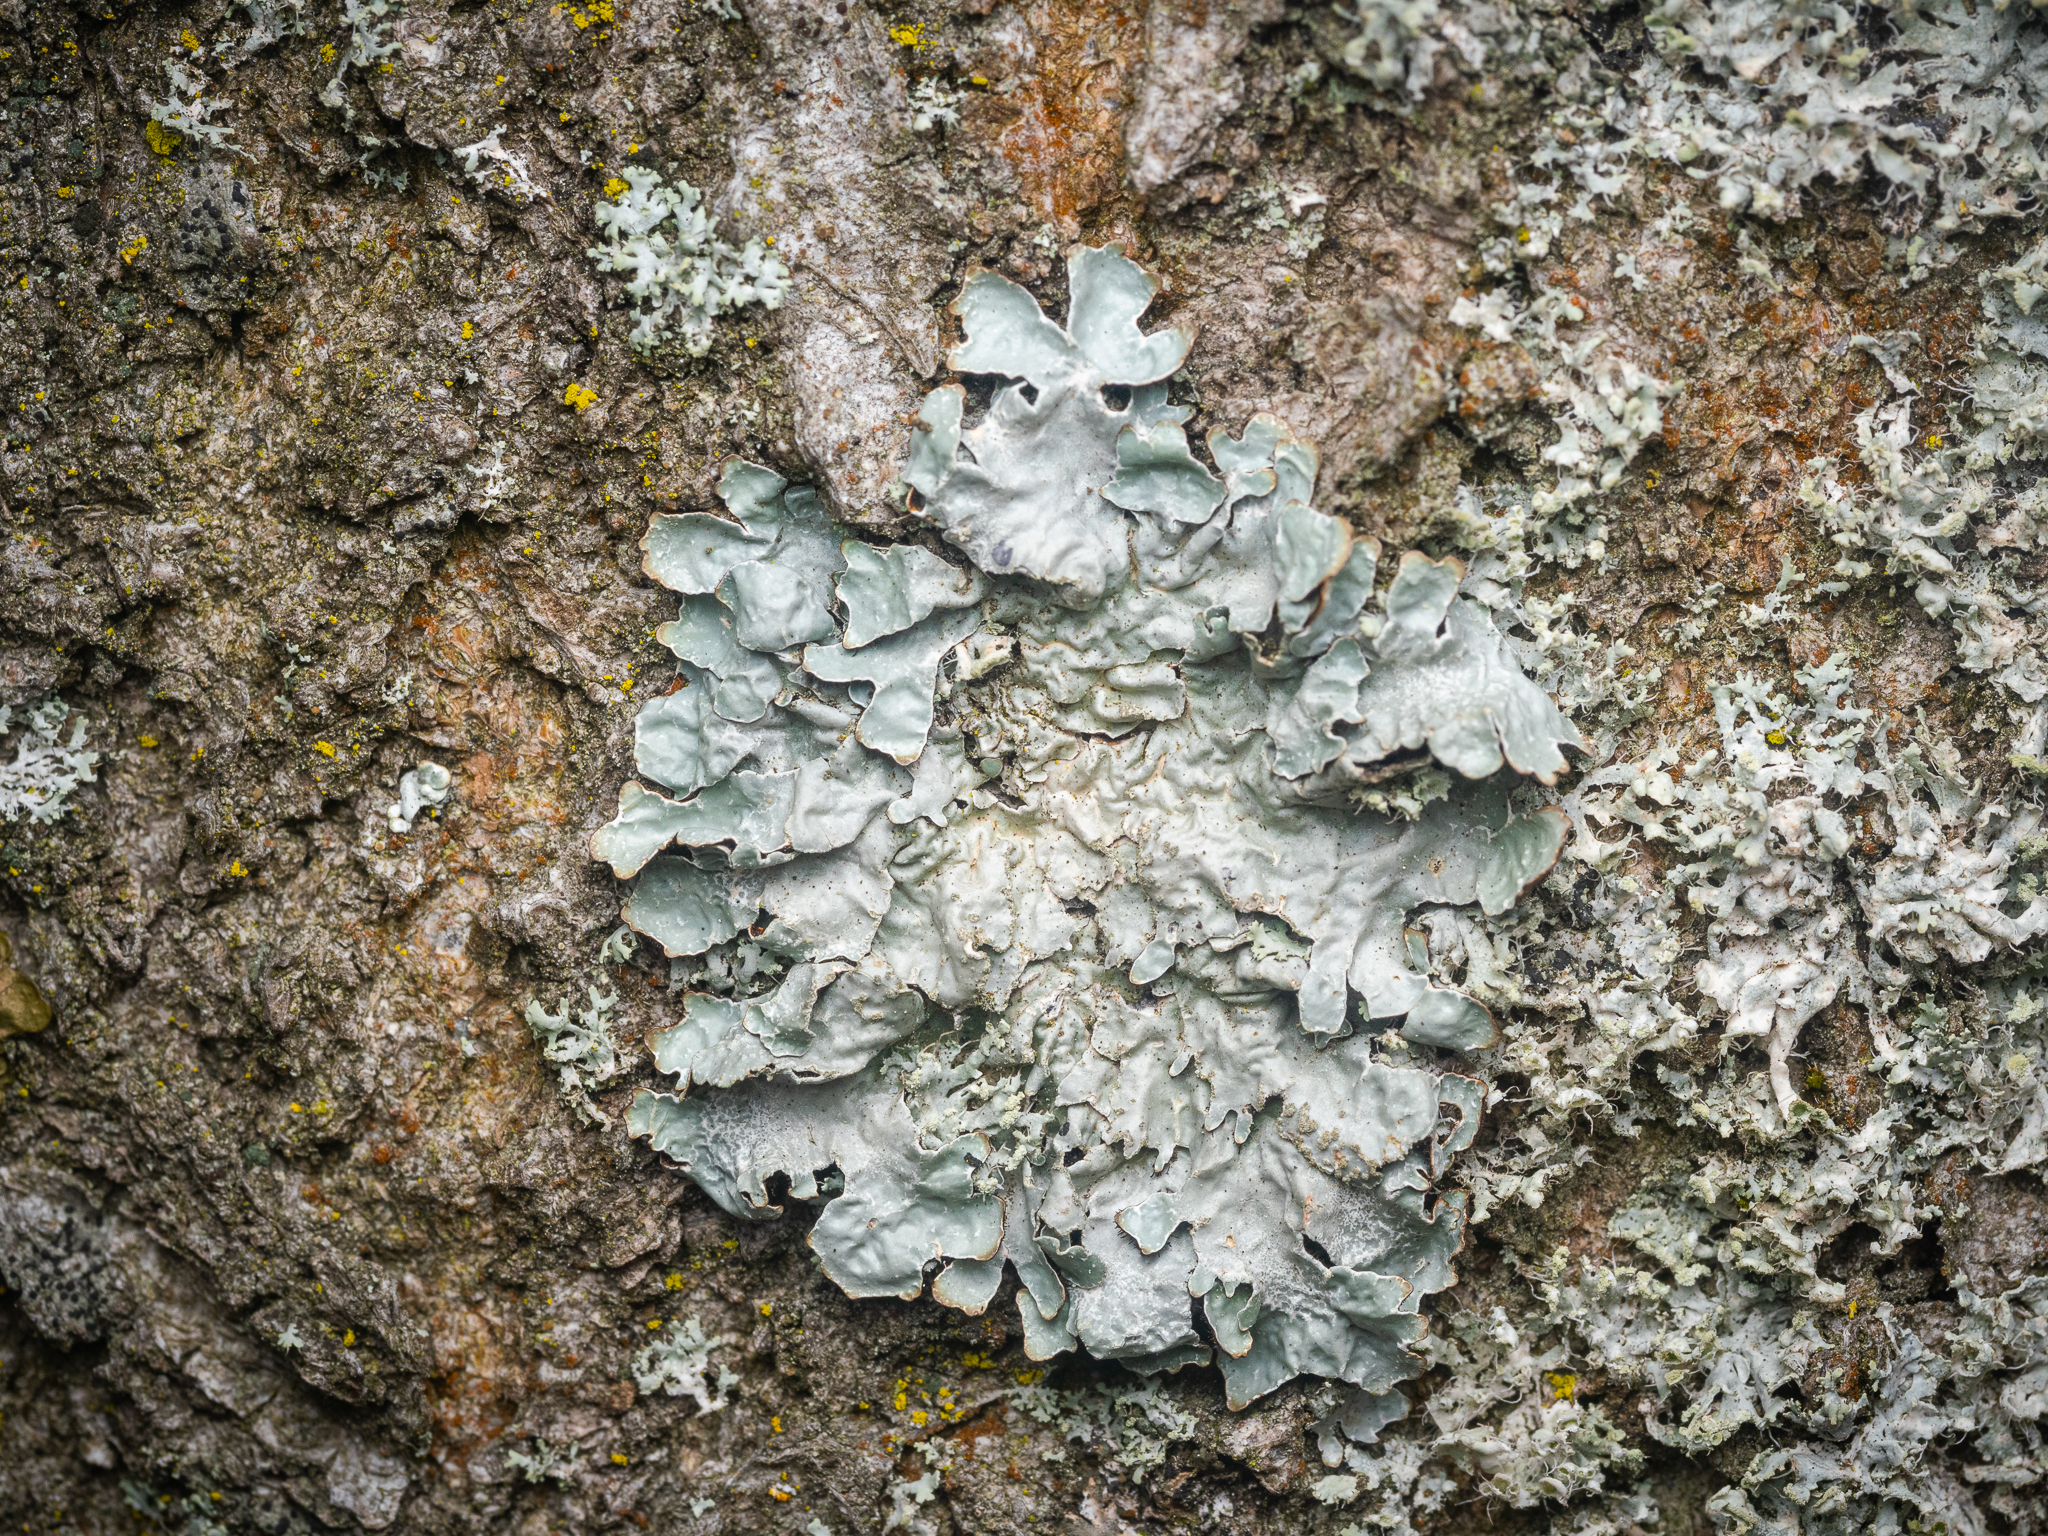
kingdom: Fungi
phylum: Ascomycota
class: Lecanoromycetes
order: Lecanorales
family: Parmeliaceae
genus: Parmelia
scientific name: Parmelia sulcata
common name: Netted shield lichen
